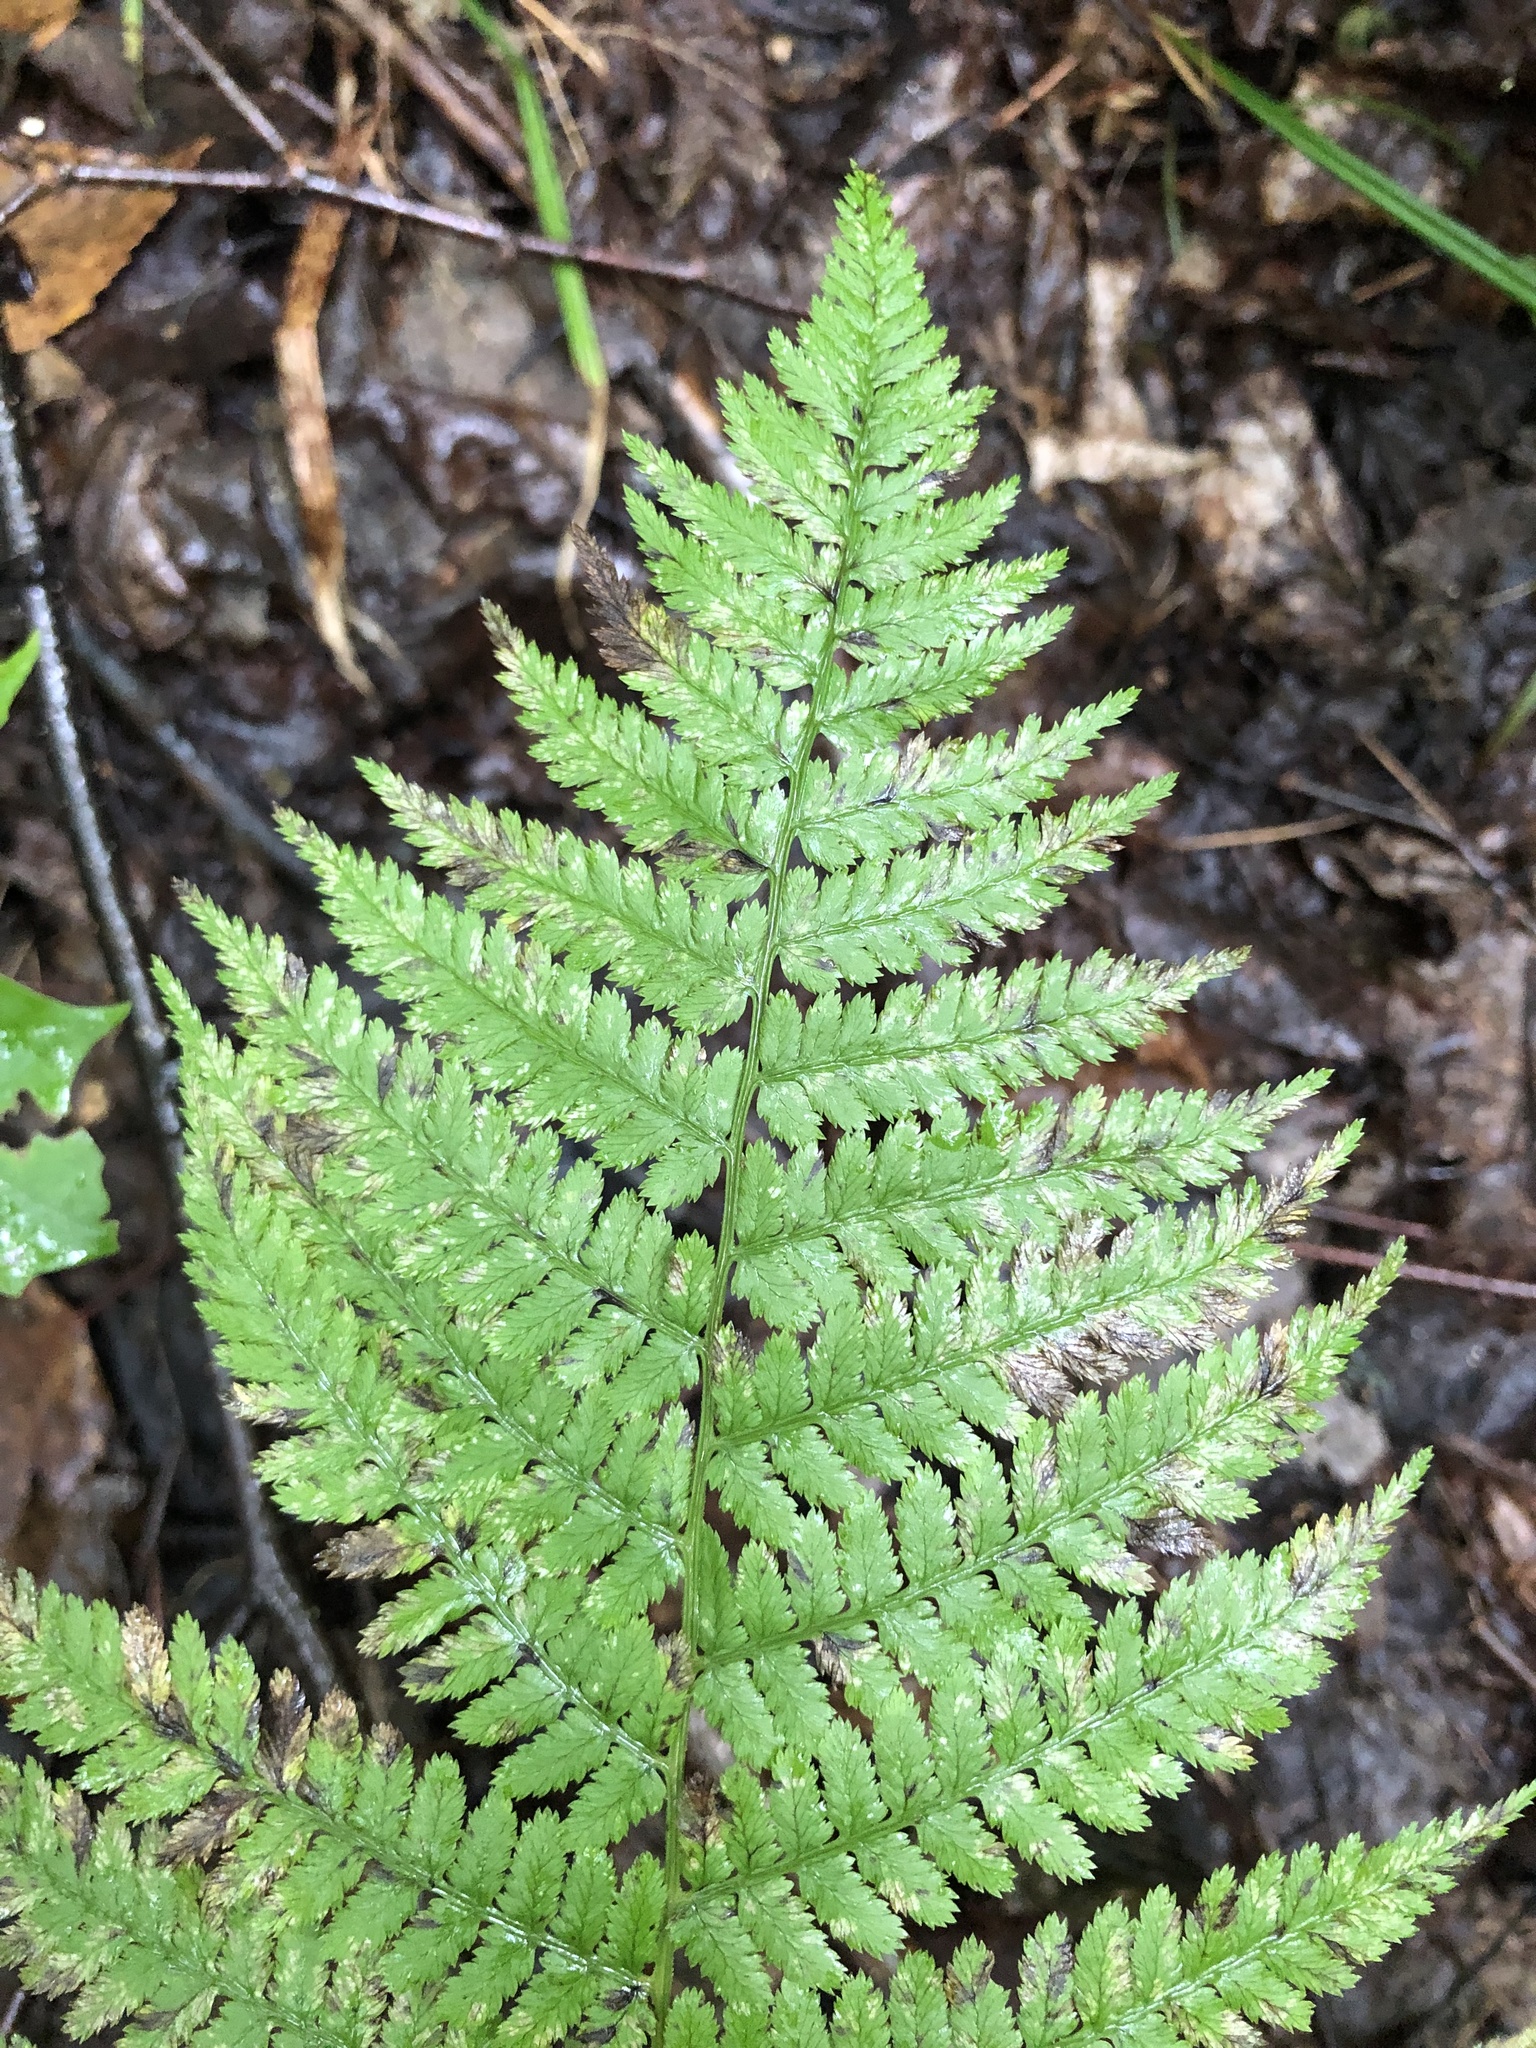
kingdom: Plantae
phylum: Tracheophyta
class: Polypodiopsida
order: Polypodiales
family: Dryopteridaceae
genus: Dryopteris
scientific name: Dryopteris intermedia
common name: Evergreen wood fern
